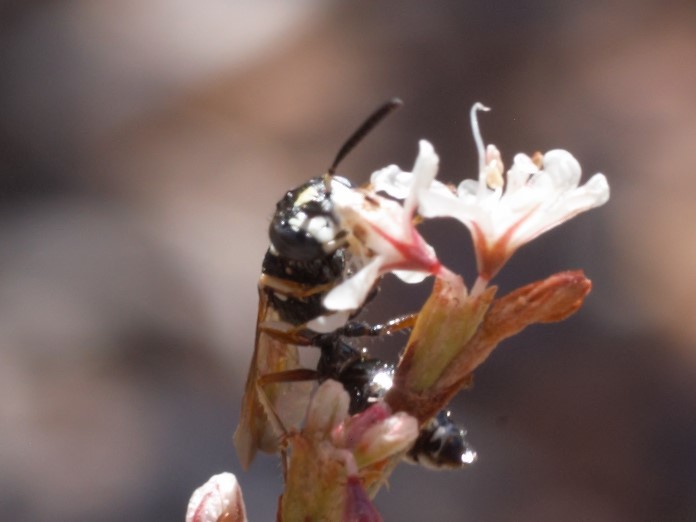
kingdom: Animalia
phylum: Arthropoda
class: Insecta
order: Hymenoptera
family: Crabronidae
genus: Philanthus
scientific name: Philanthus gibbosus
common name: Humped beewolf
